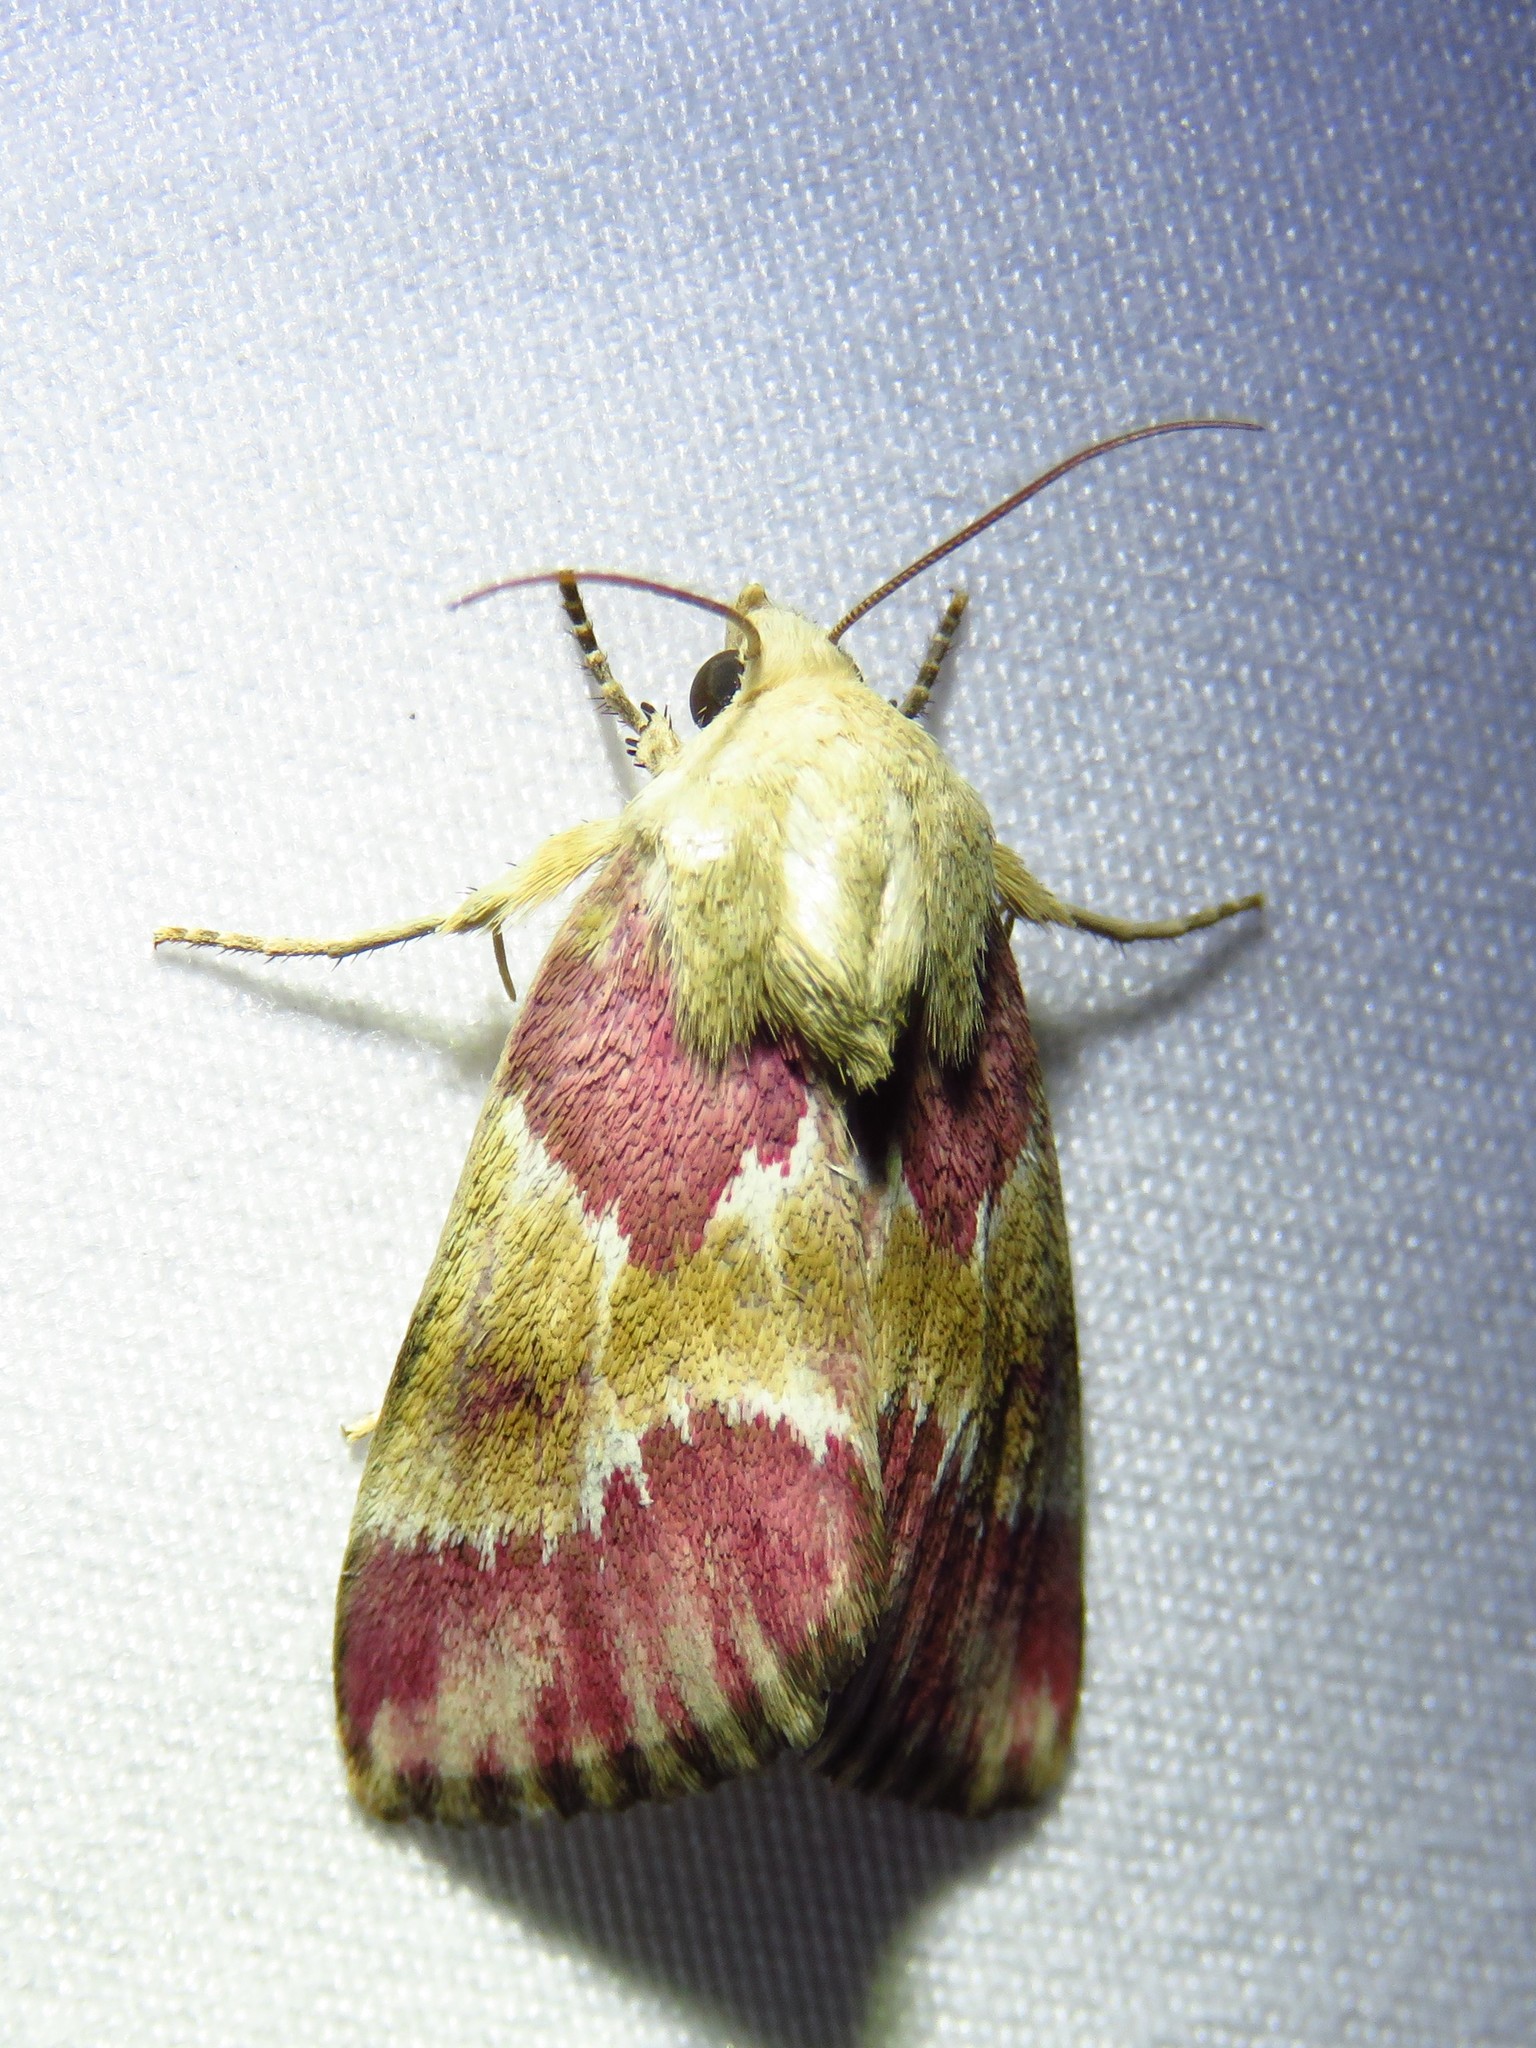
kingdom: Animalia
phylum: Arthropoda
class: Insecta
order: Lepidoptera
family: Noctuidae
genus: Schinia
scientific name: Schinia sanguinea
